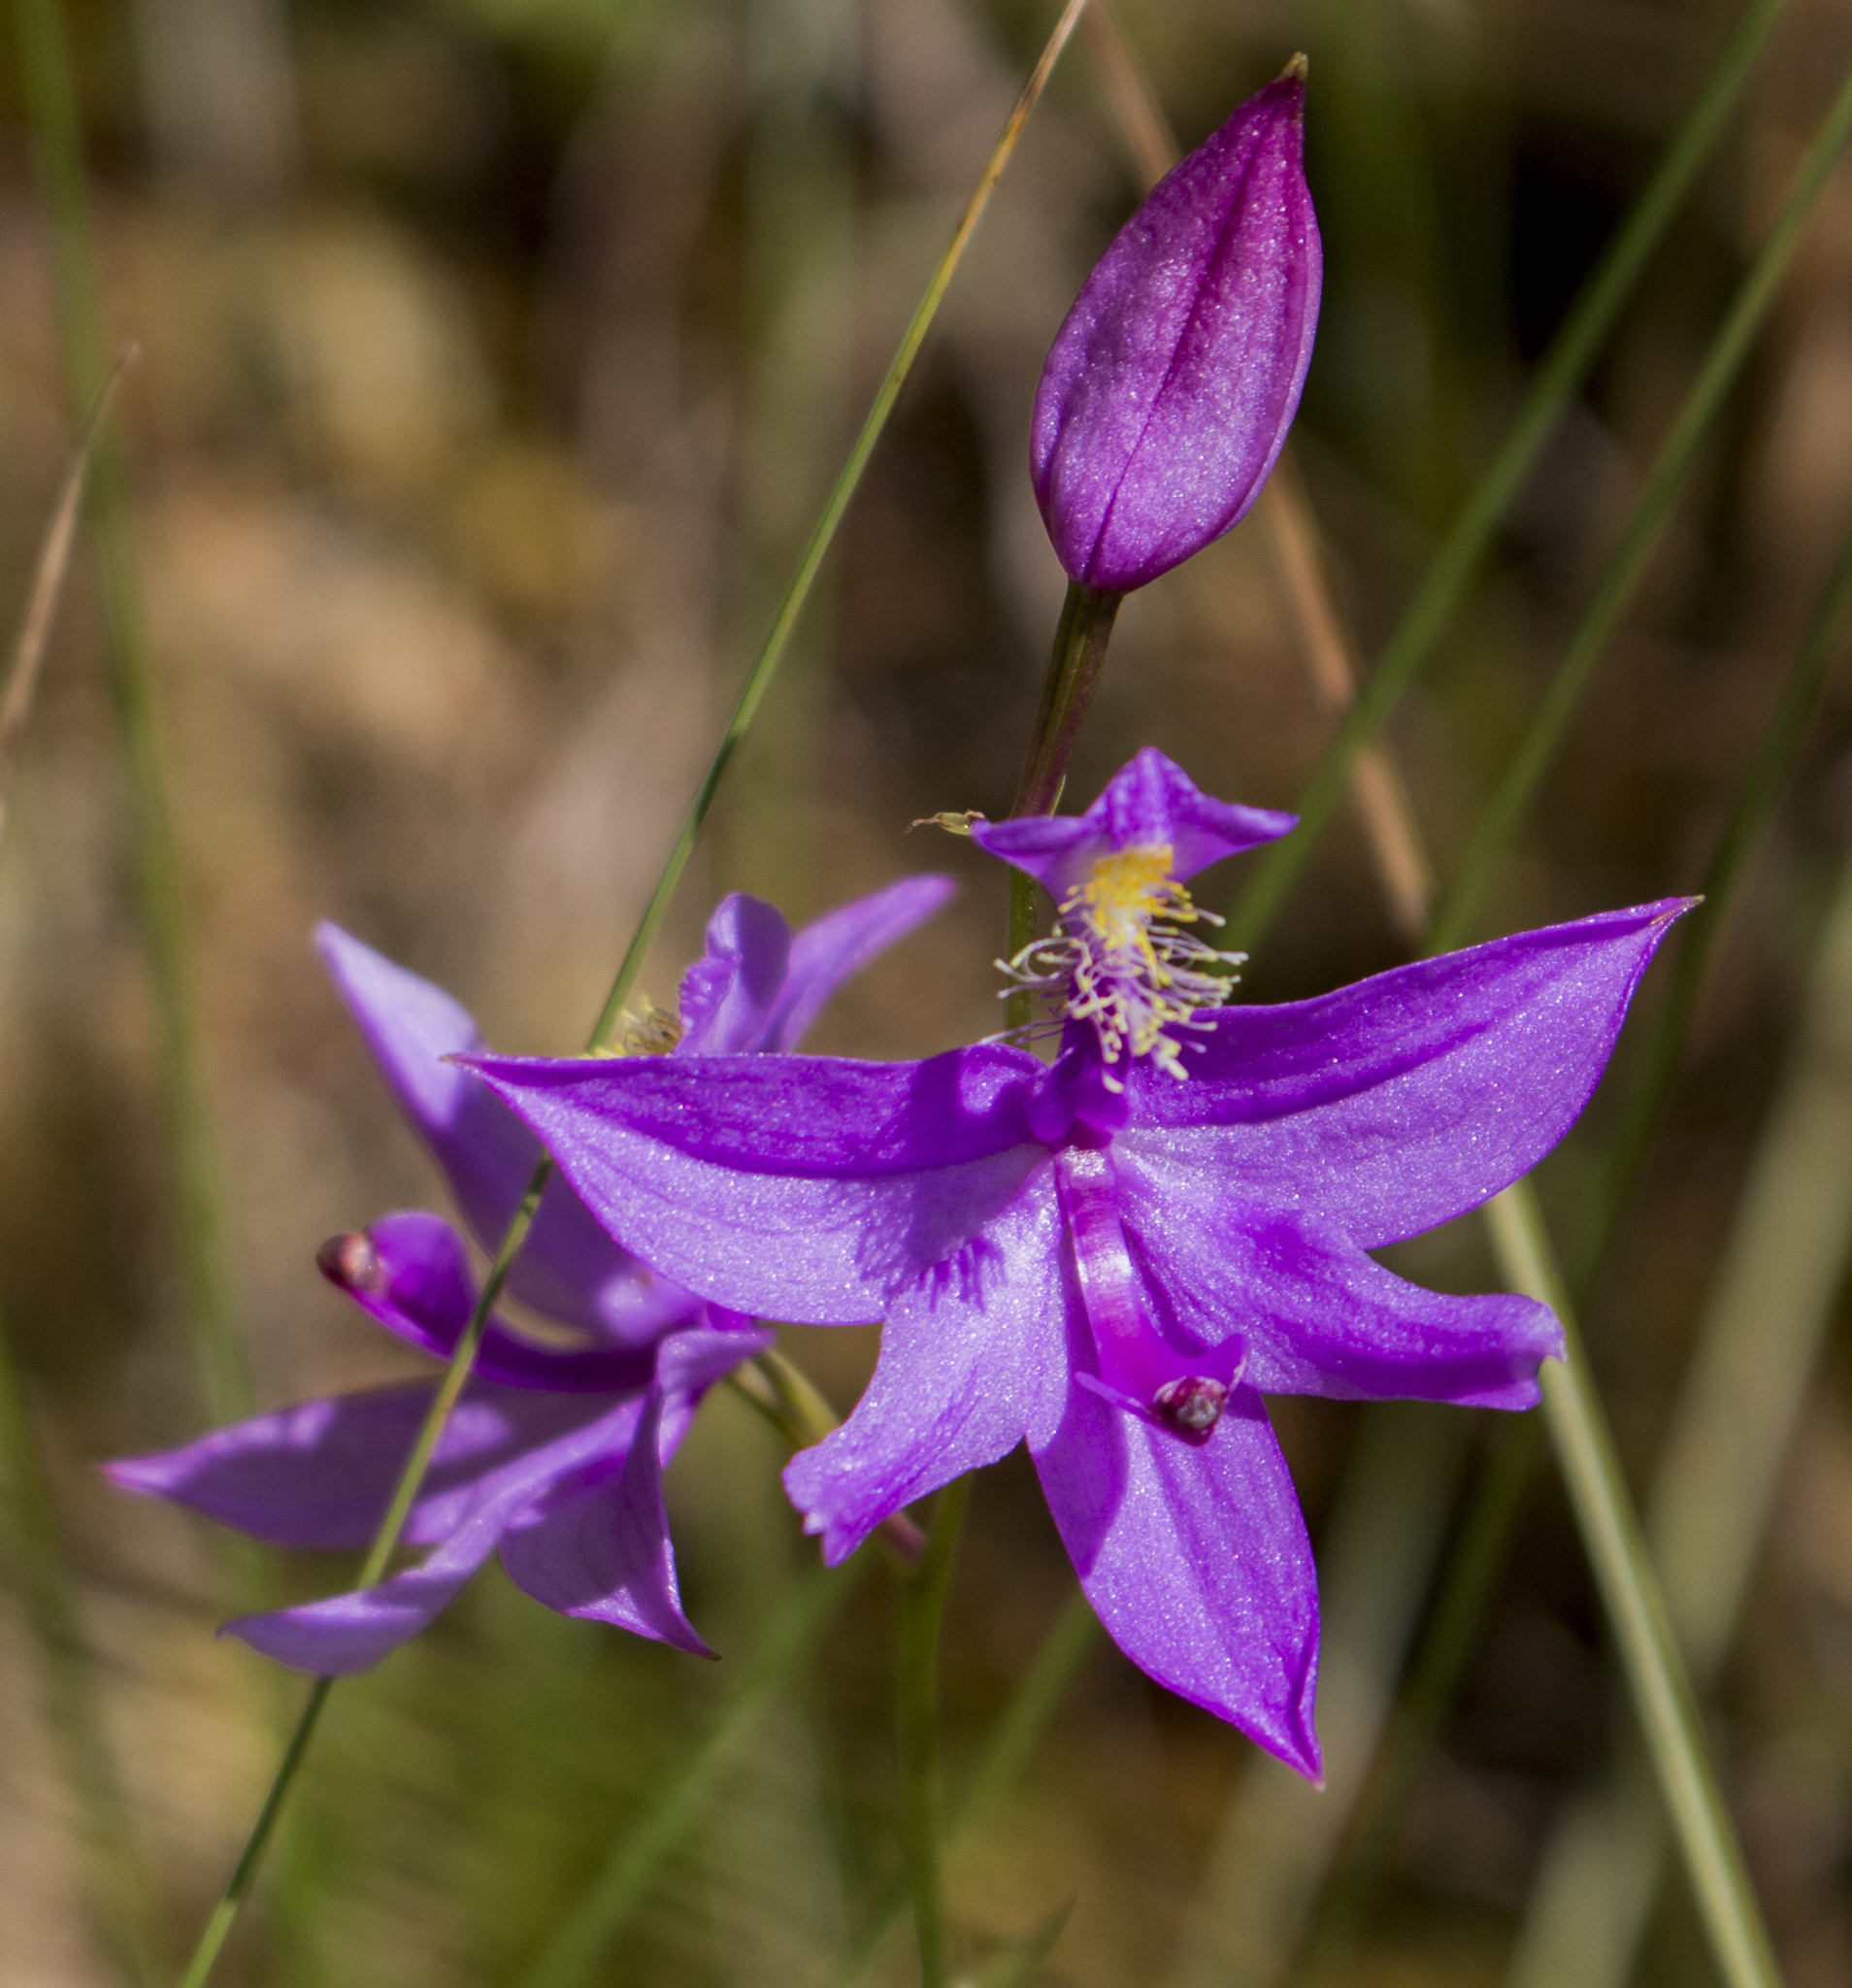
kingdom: Plantae
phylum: Tracheophyta
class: Liliopsida
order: Asparagales
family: Orchidaceae
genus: Calopogon
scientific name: Calopogon tuberosus
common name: Grass-pink
